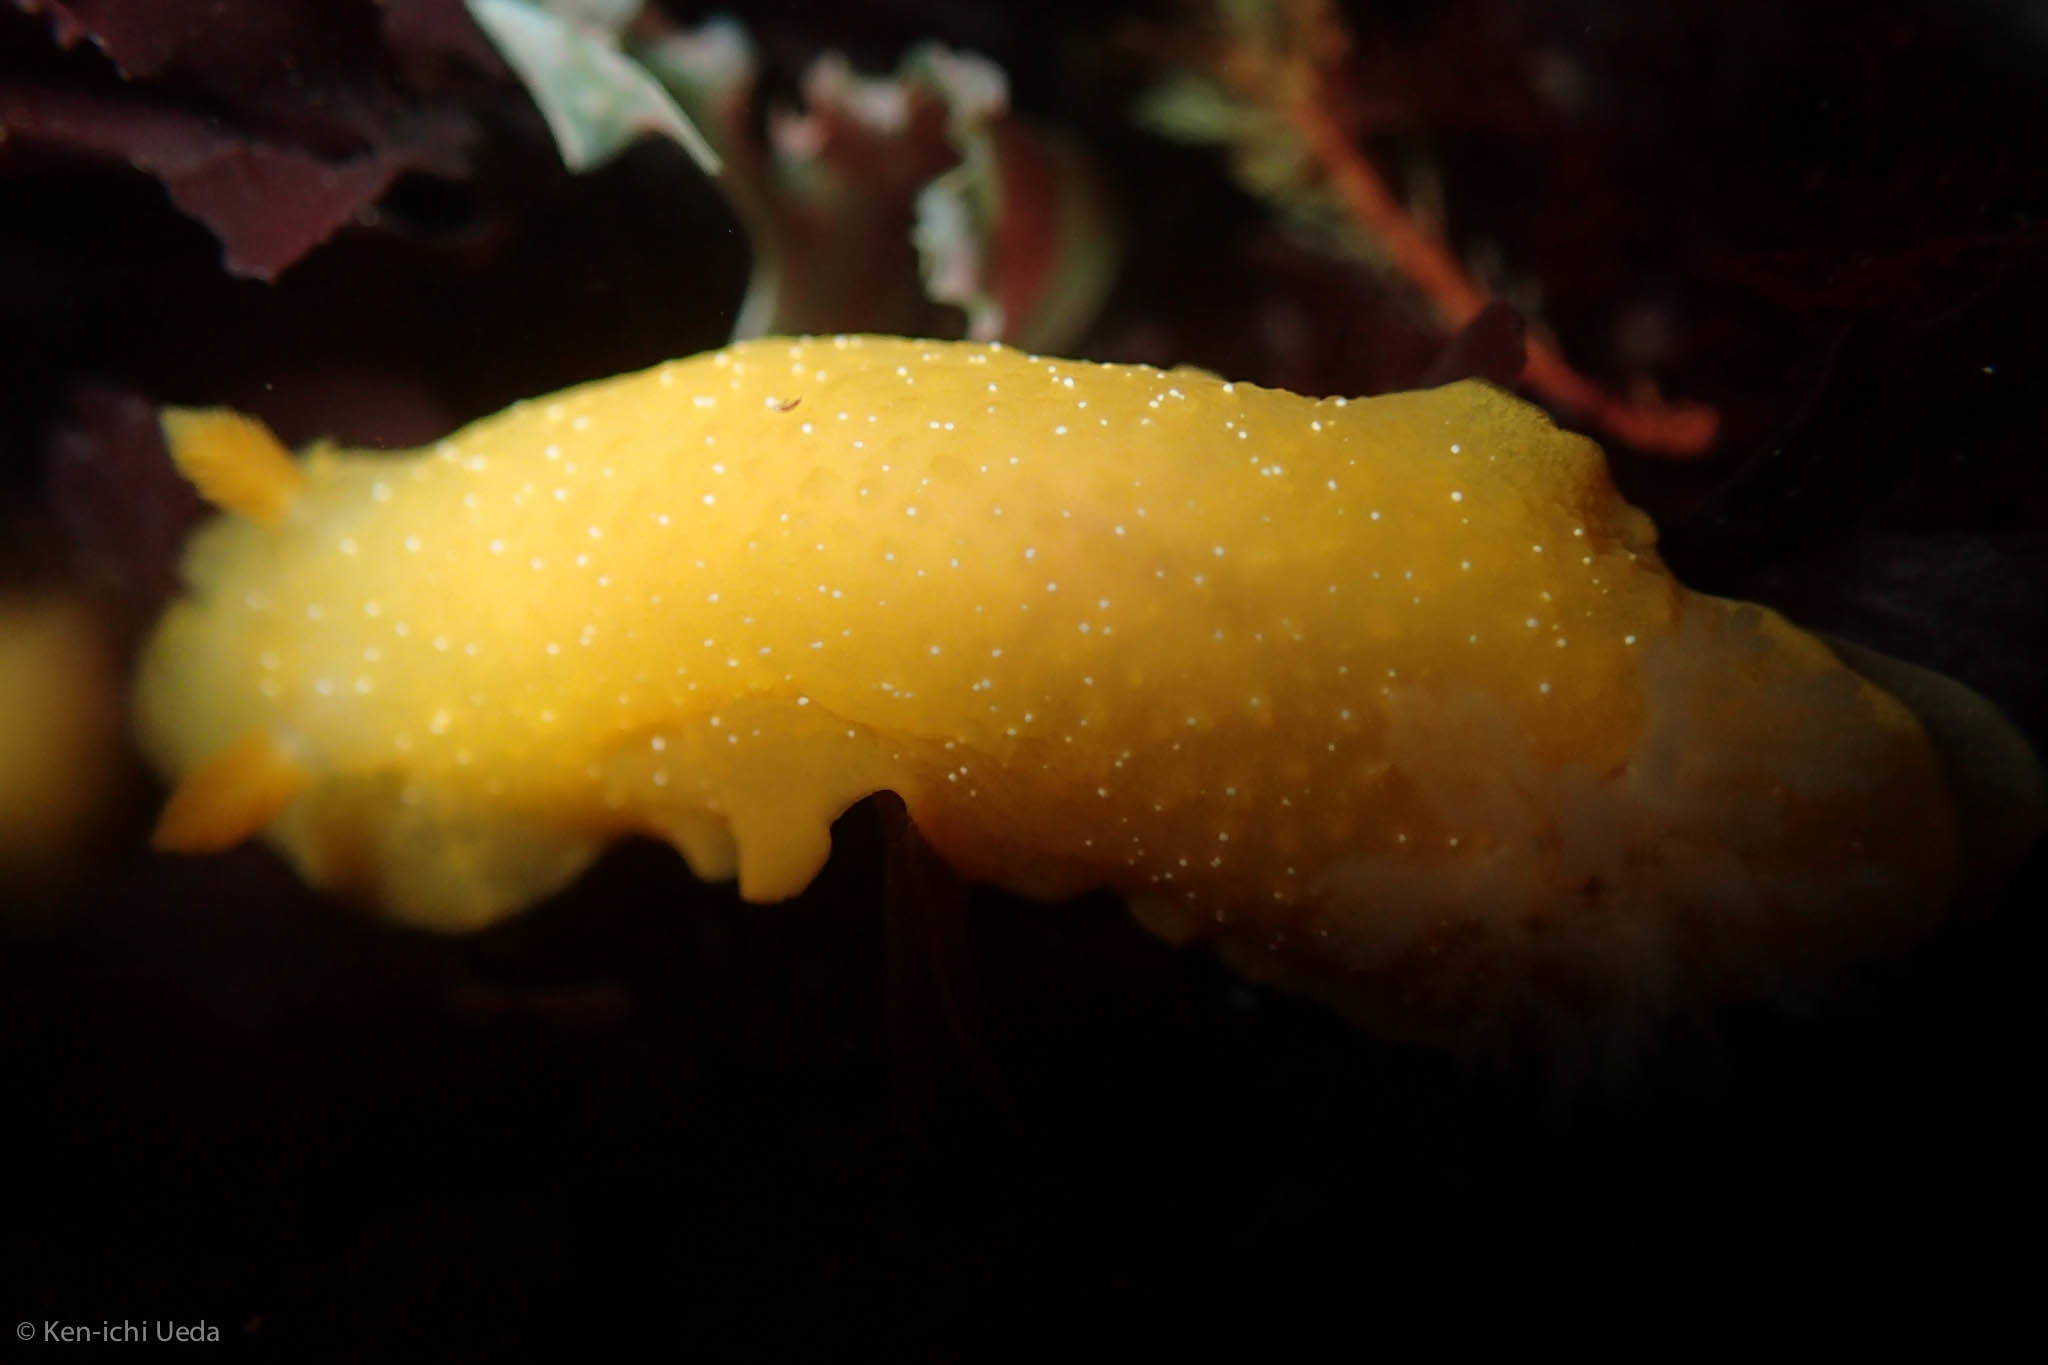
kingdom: Animalia
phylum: Mollusca
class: Gastropoda
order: Nudibranchia
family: Dendrodorididae
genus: Doriopsilla
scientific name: Doriopsilla fulva
